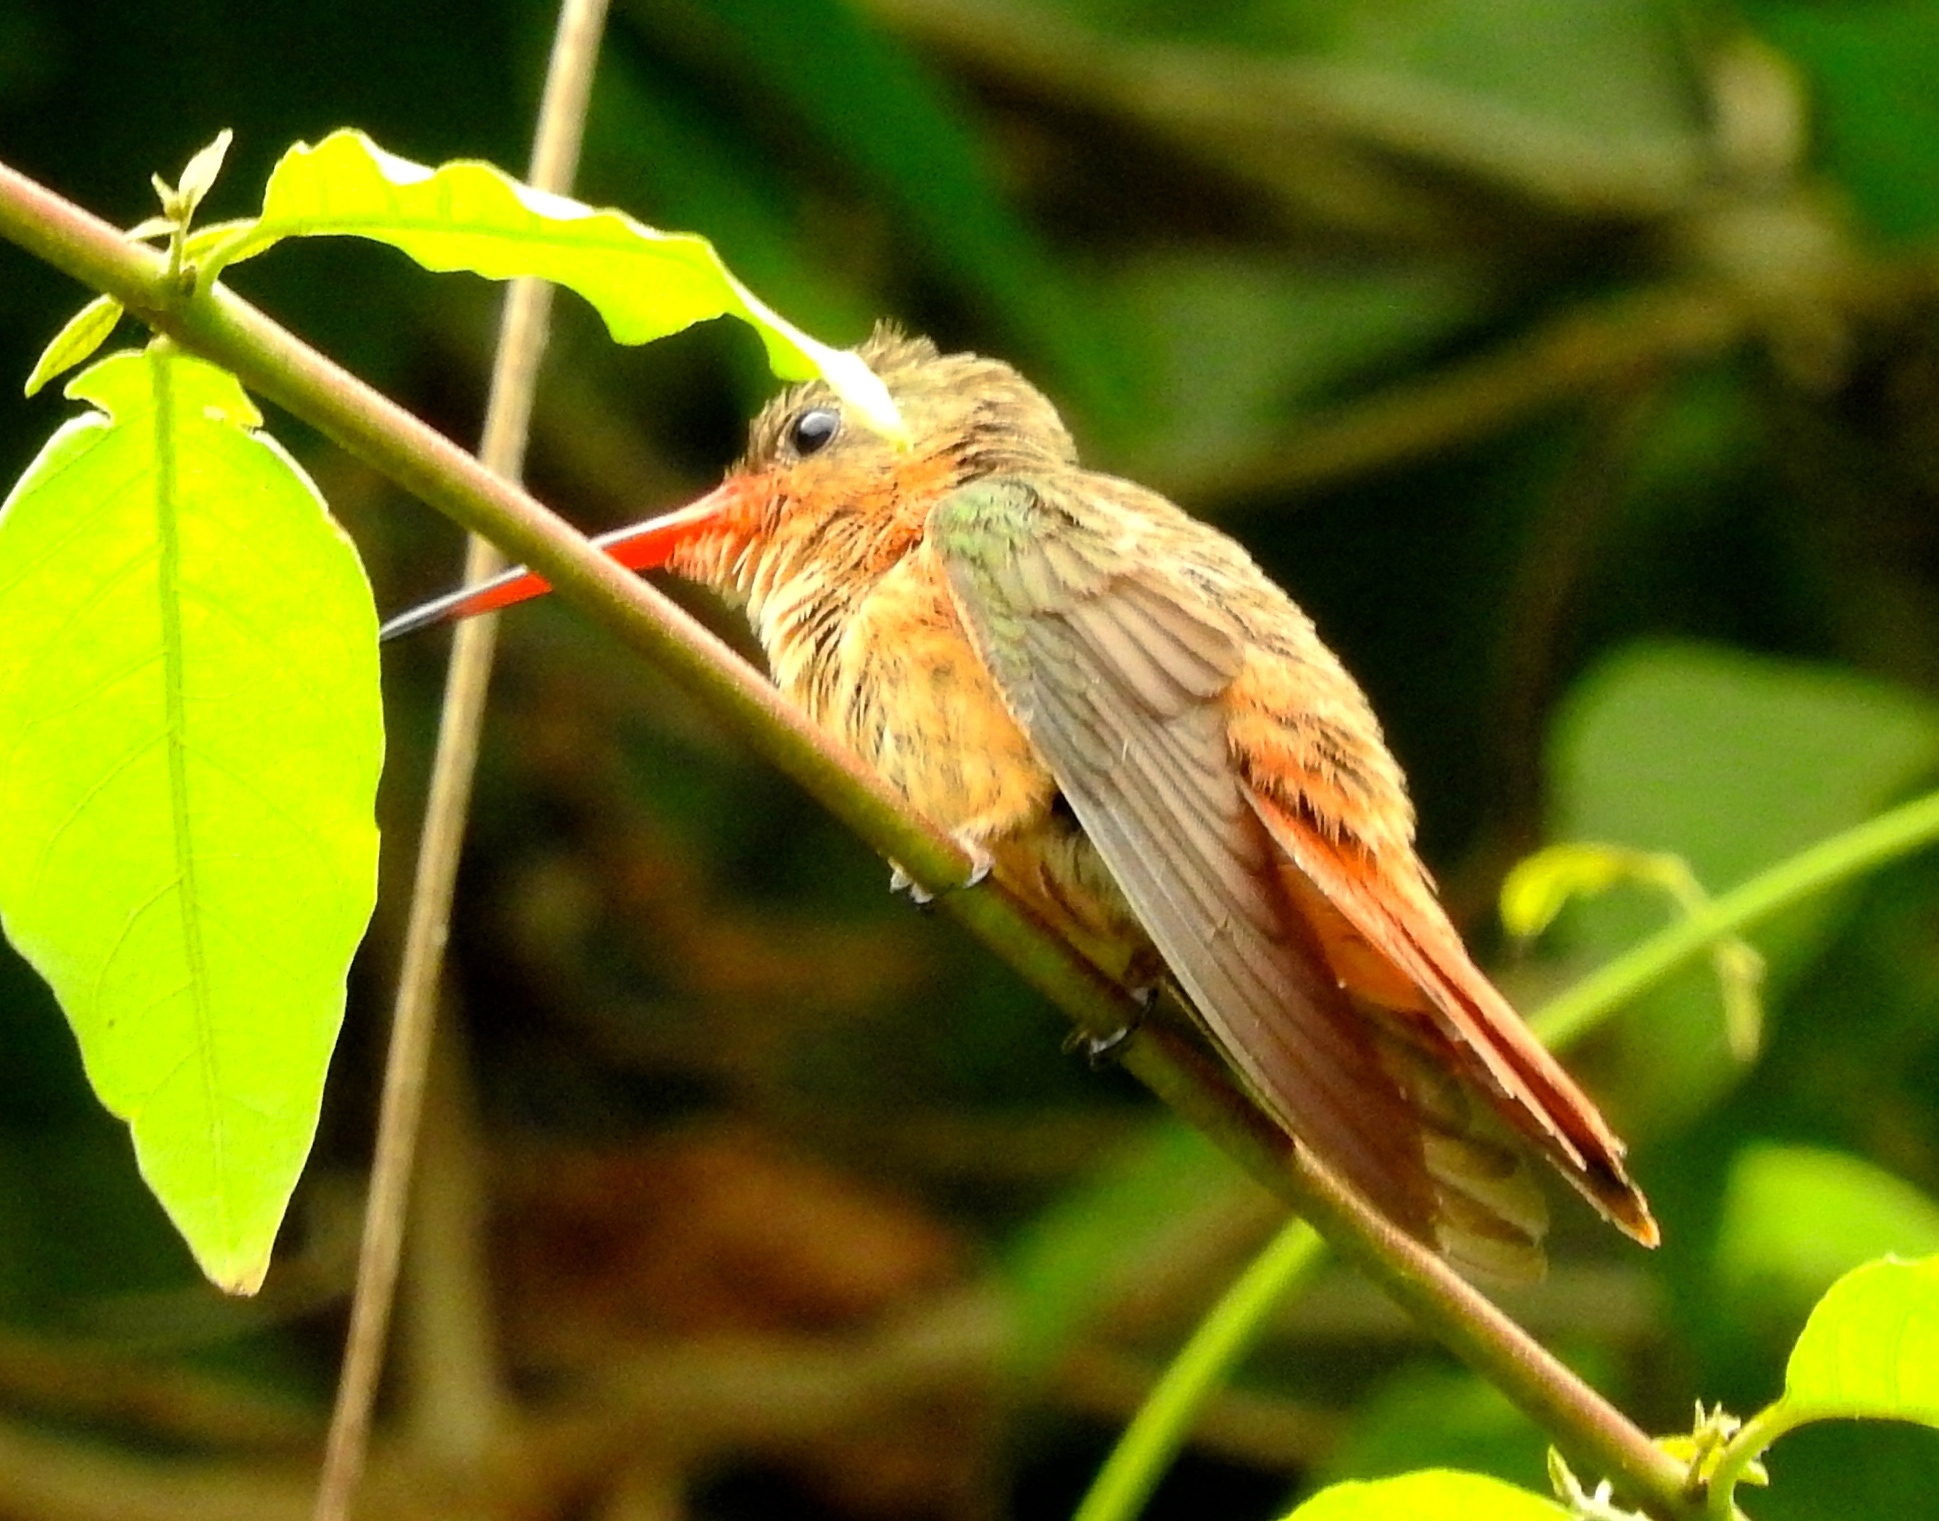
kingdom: Animalia
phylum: Chordata
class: Aves
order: Apodiformes
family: Trochilidae
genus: Amazilia
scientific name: Amazilia rutila
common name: Cinnamon hummingbird
